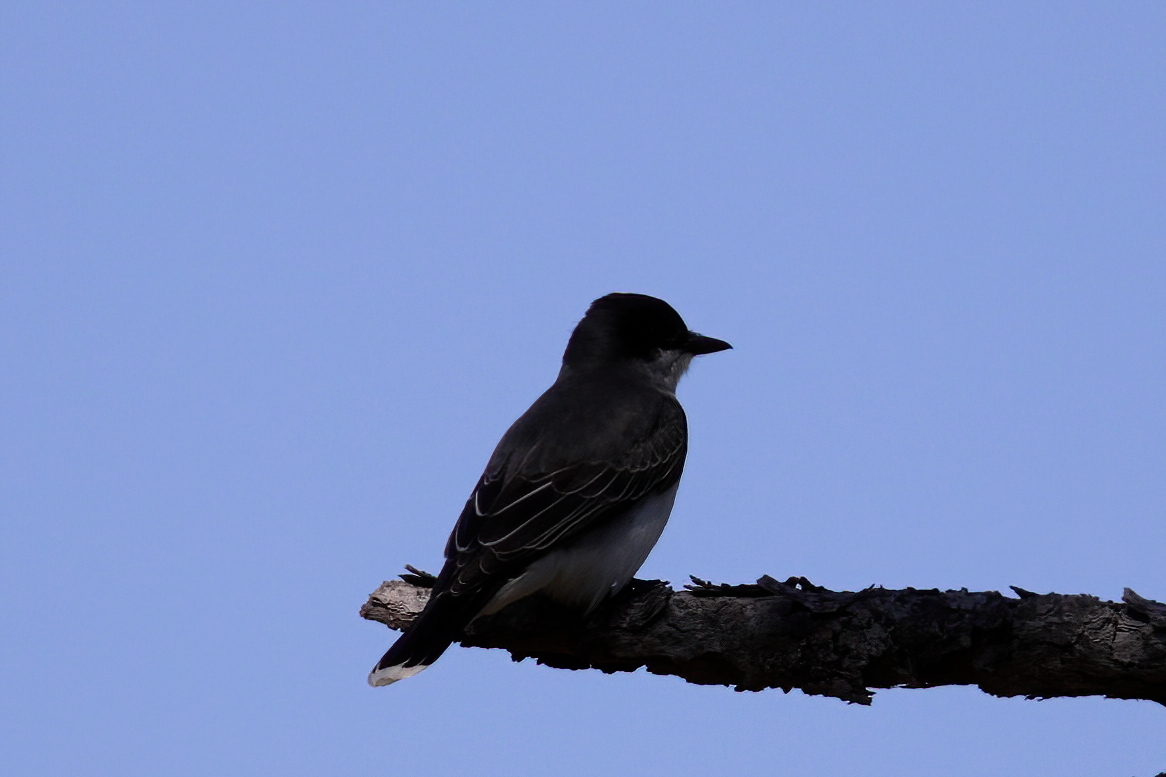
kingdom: Animalia
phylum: Chordata
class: Aves
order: Passeriformes
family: Tyrannidae
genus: Tyrannus
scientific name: Tyrannus tyrannus
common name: Eastern kingbird
